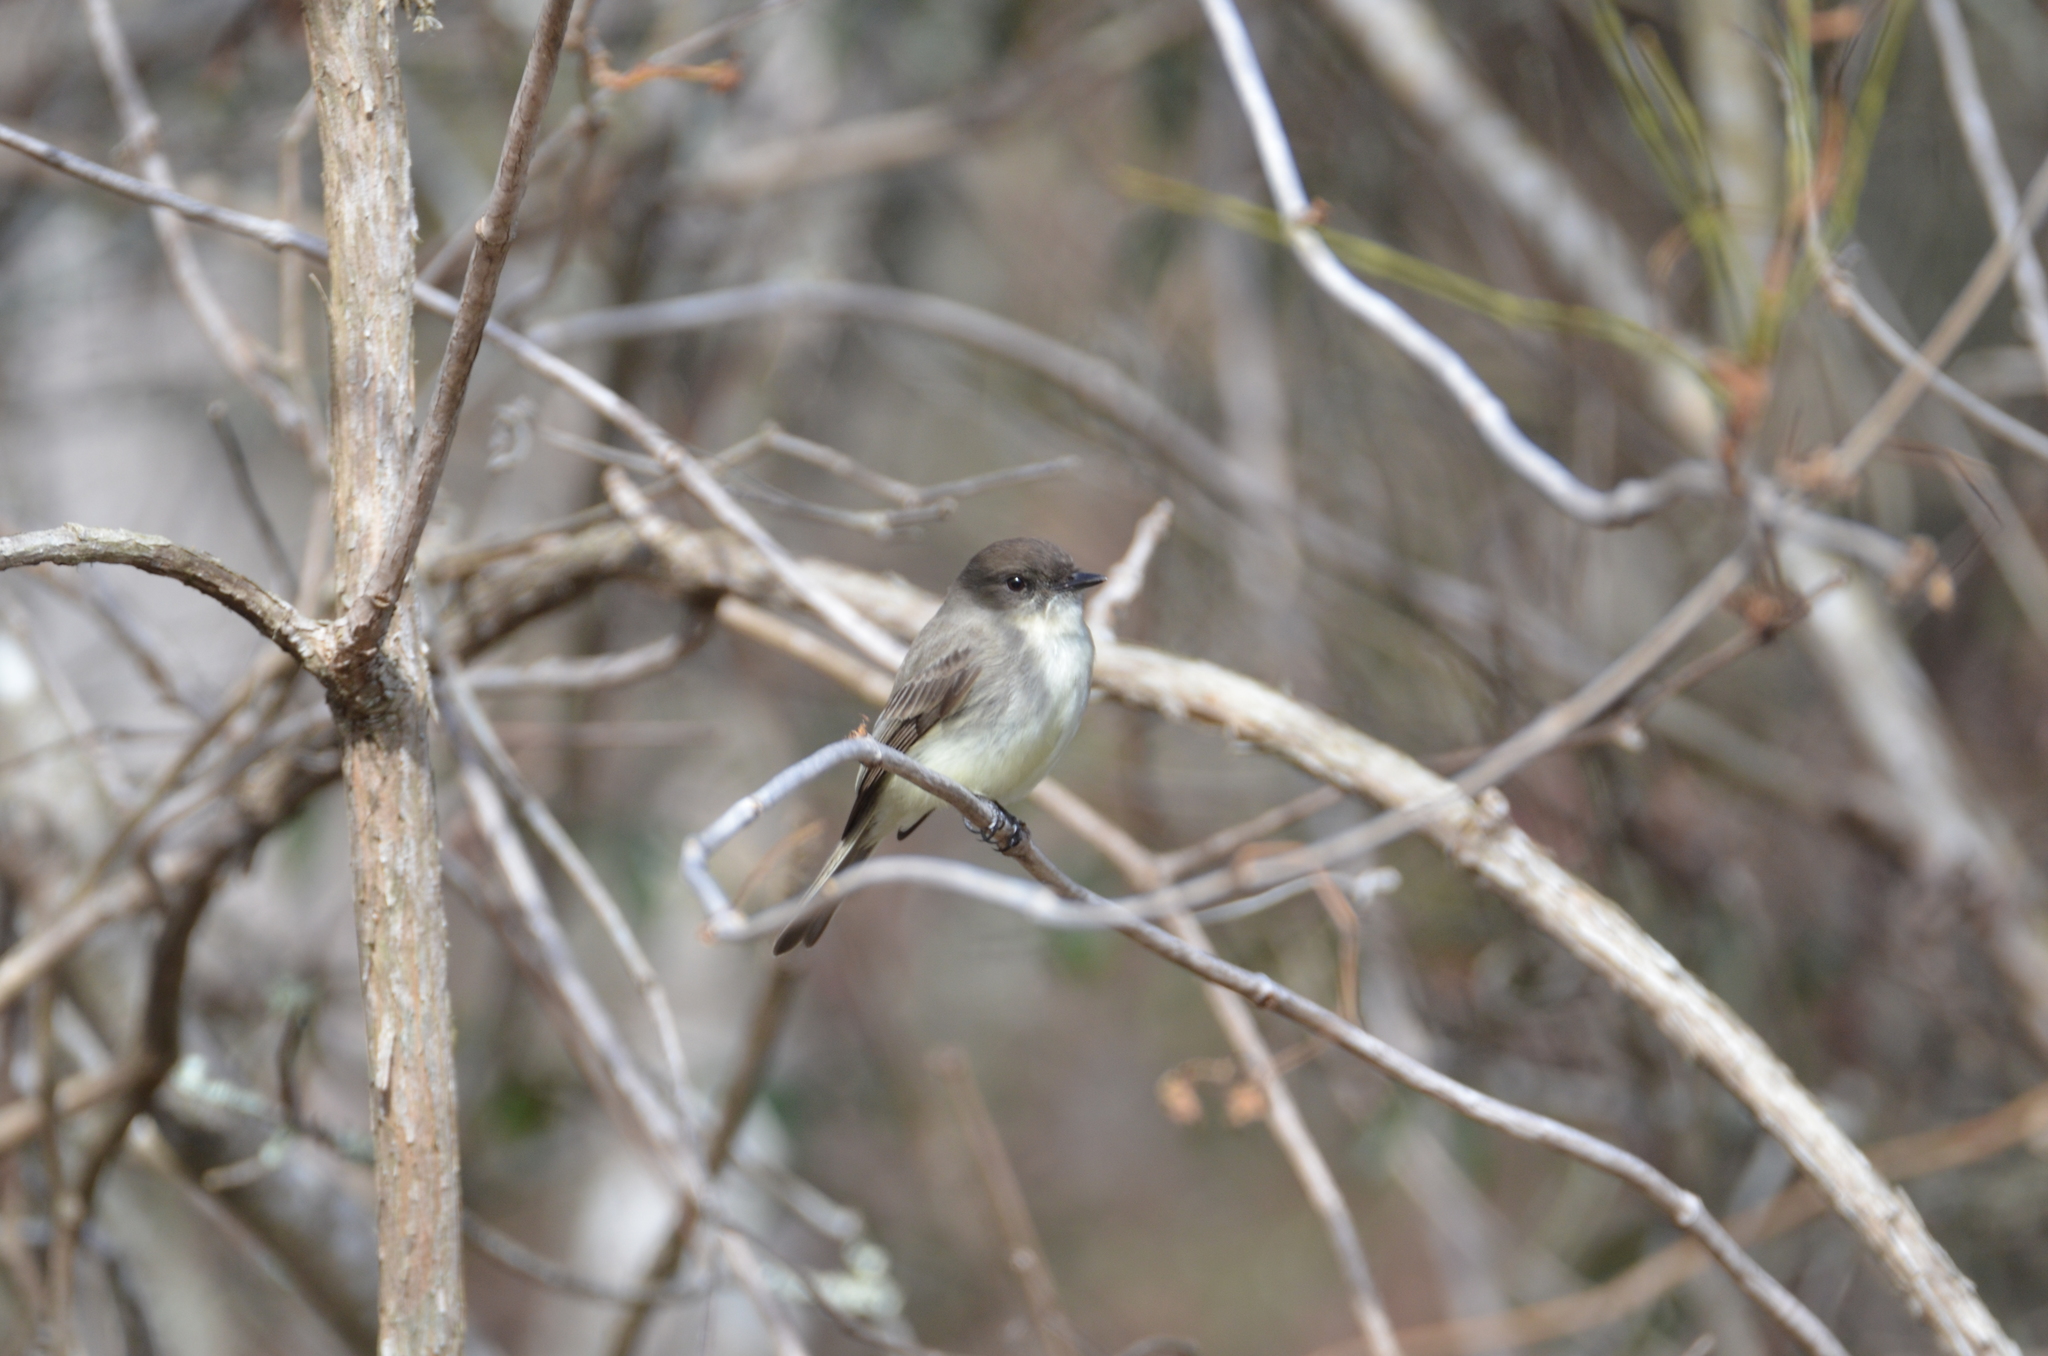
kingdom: Animalia
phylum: Chordata
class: Aves
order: Passeriformes
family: Tyrannidae
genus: Sayornis
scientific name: Sayornis phoebe
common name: Eastern phoebe
